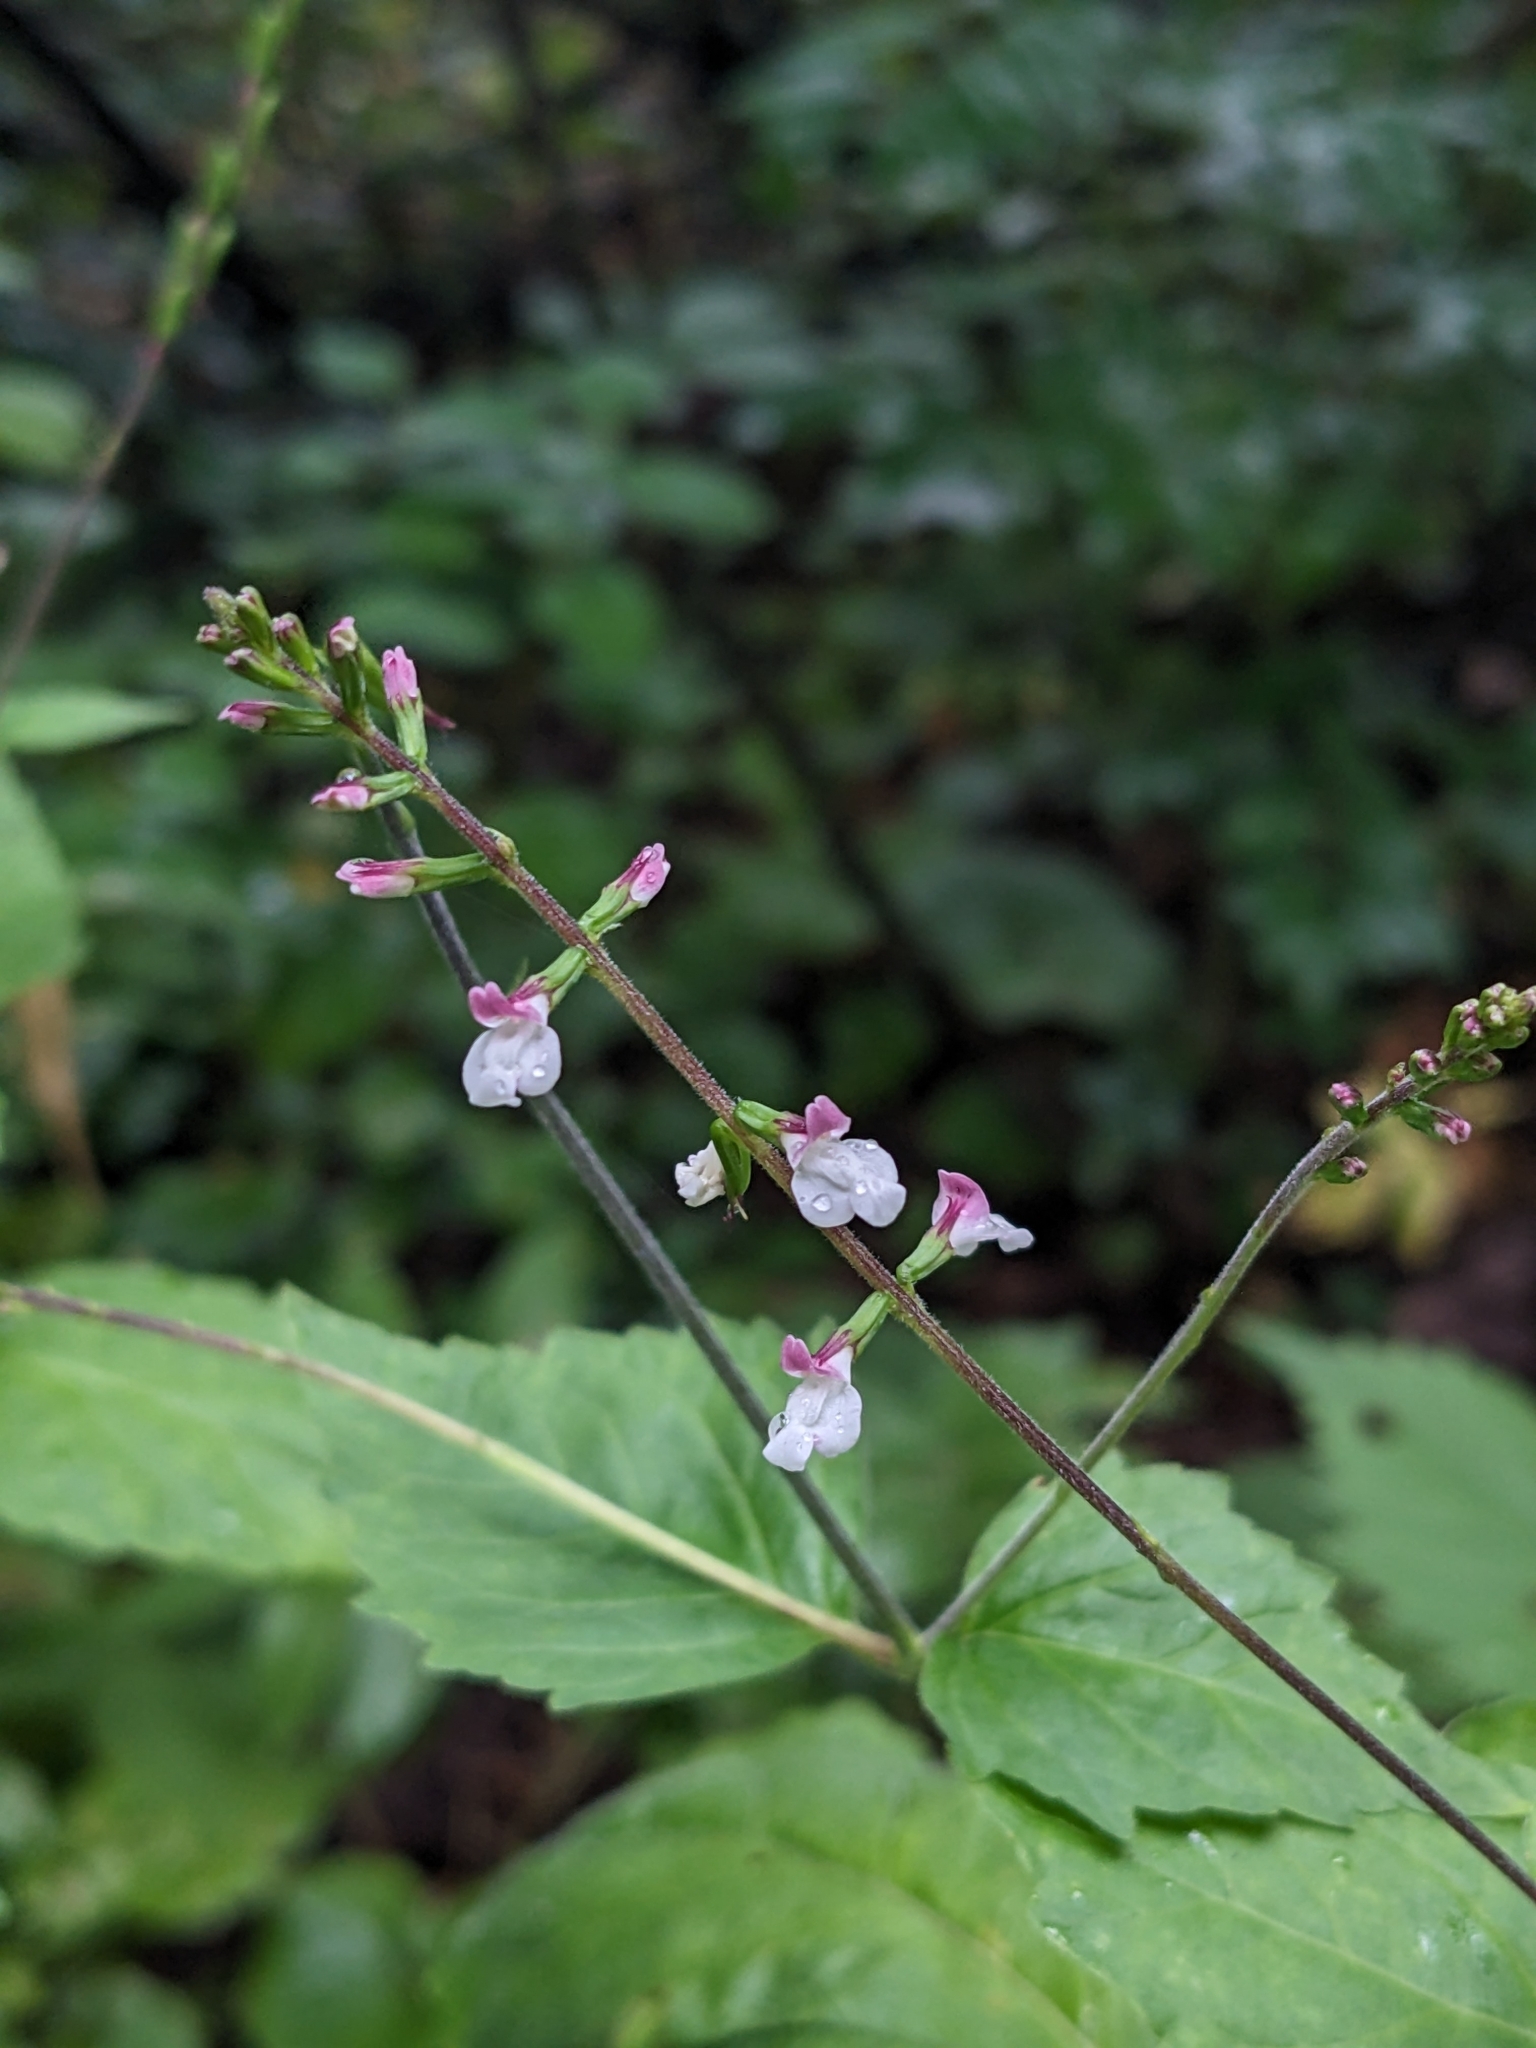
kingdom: Plantae
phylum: Tracheophyta
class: Magnoliopsida
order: Lamiales
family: Phrymaceae
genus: Phryma
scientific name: Phryma leptostachya
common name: American lopseed
